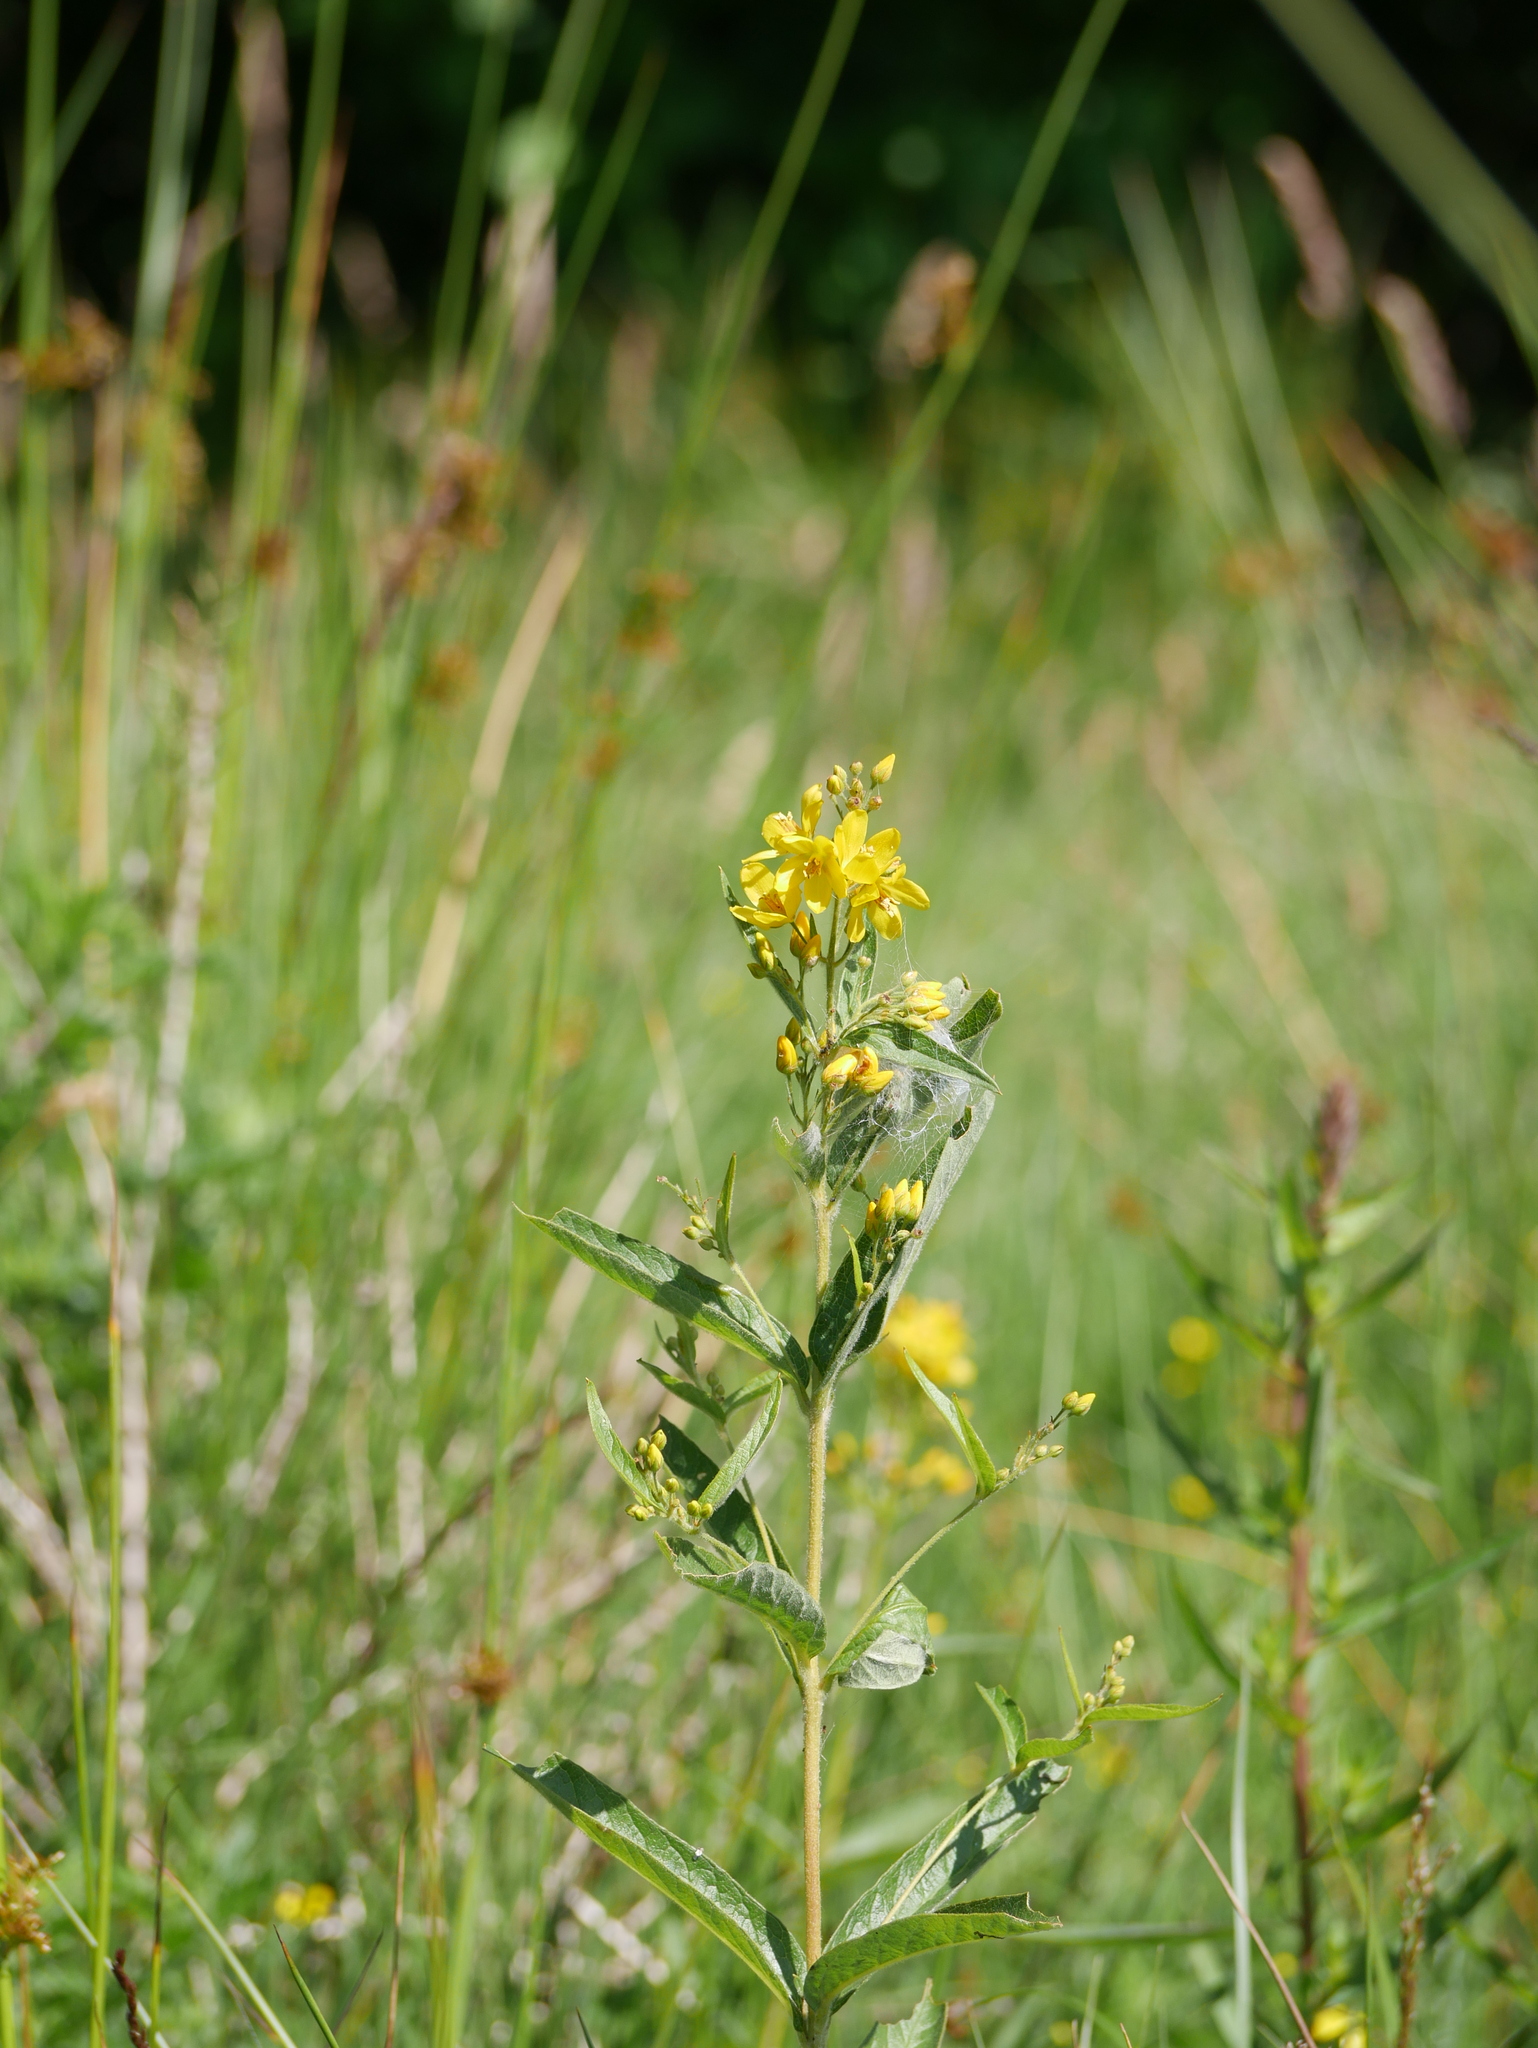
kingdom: Plantae
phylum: Tracheophyta
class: Magnoliopsida
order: Ericales
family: Primulaceae
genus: Lysimachia
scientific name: Lysimachia vulgaris
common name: Yellow loosestrife
